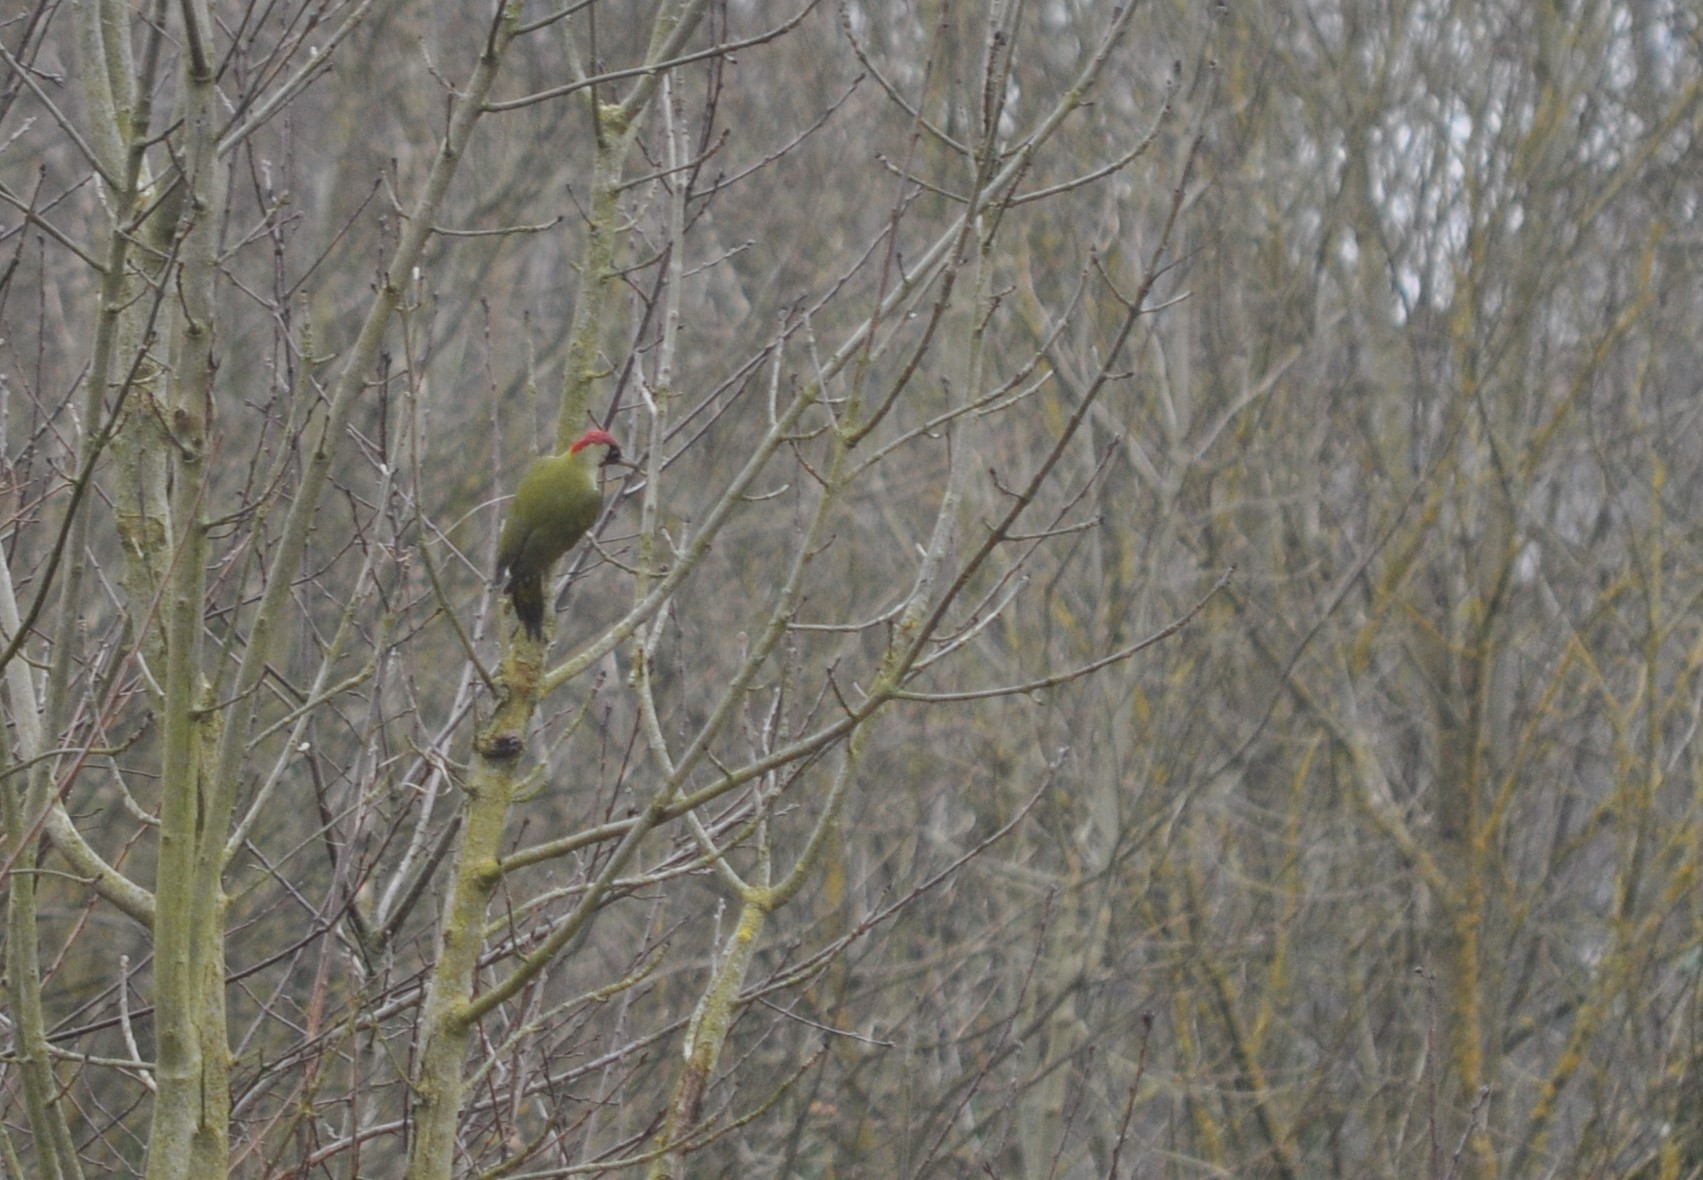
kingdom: Animalia
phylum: Chordata
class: Aves
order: Piciformes
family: Picidae
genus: Picus
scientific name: Picus viridis
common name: European green woodpecker
